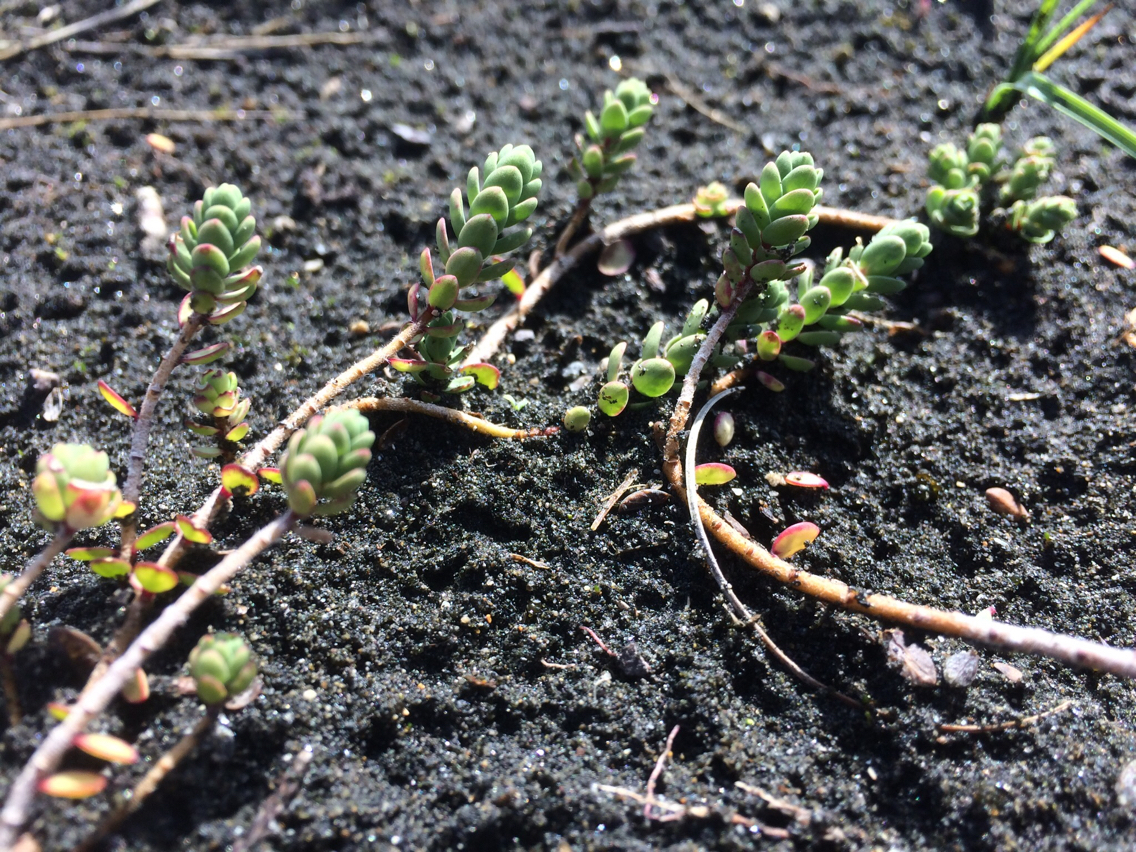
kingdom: Plantae
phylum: Tracheophyta
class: Magnoliopsida
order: Malvales
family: Thymelaeaceae
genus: Pimelea
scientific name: Pimelea actea
